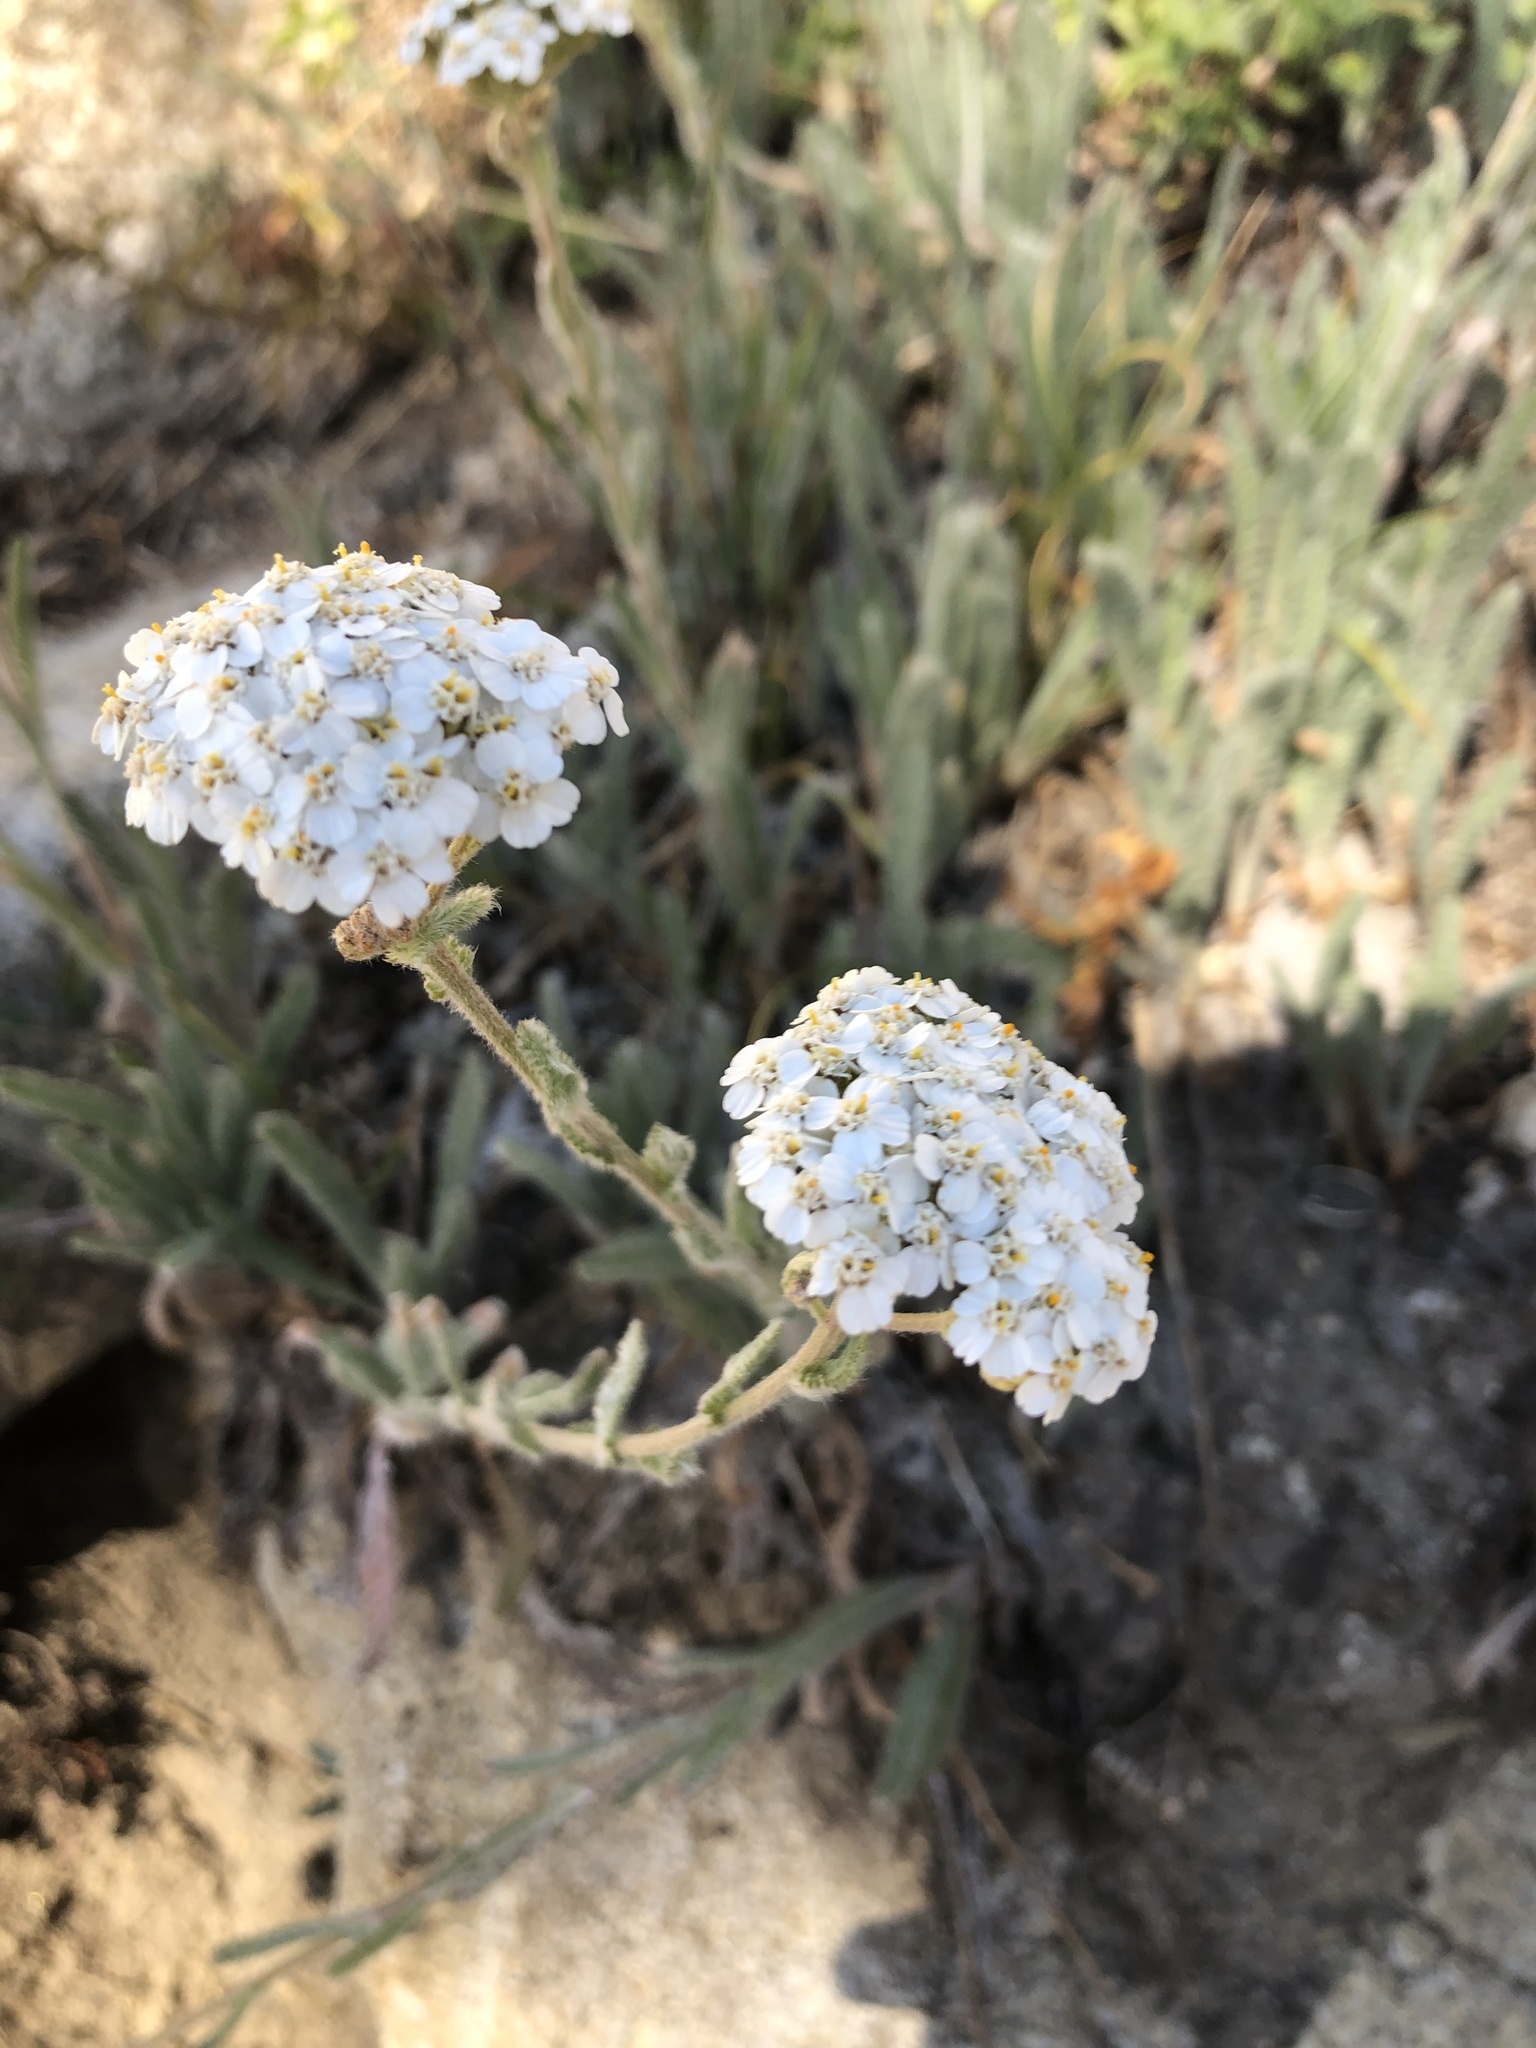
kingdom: Plantae
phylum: Tracheophyta
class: Magnoliopsida
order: Asterales
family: Asteraceae
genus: Achillea
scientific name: Achillea millefolium
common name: Yarrow
